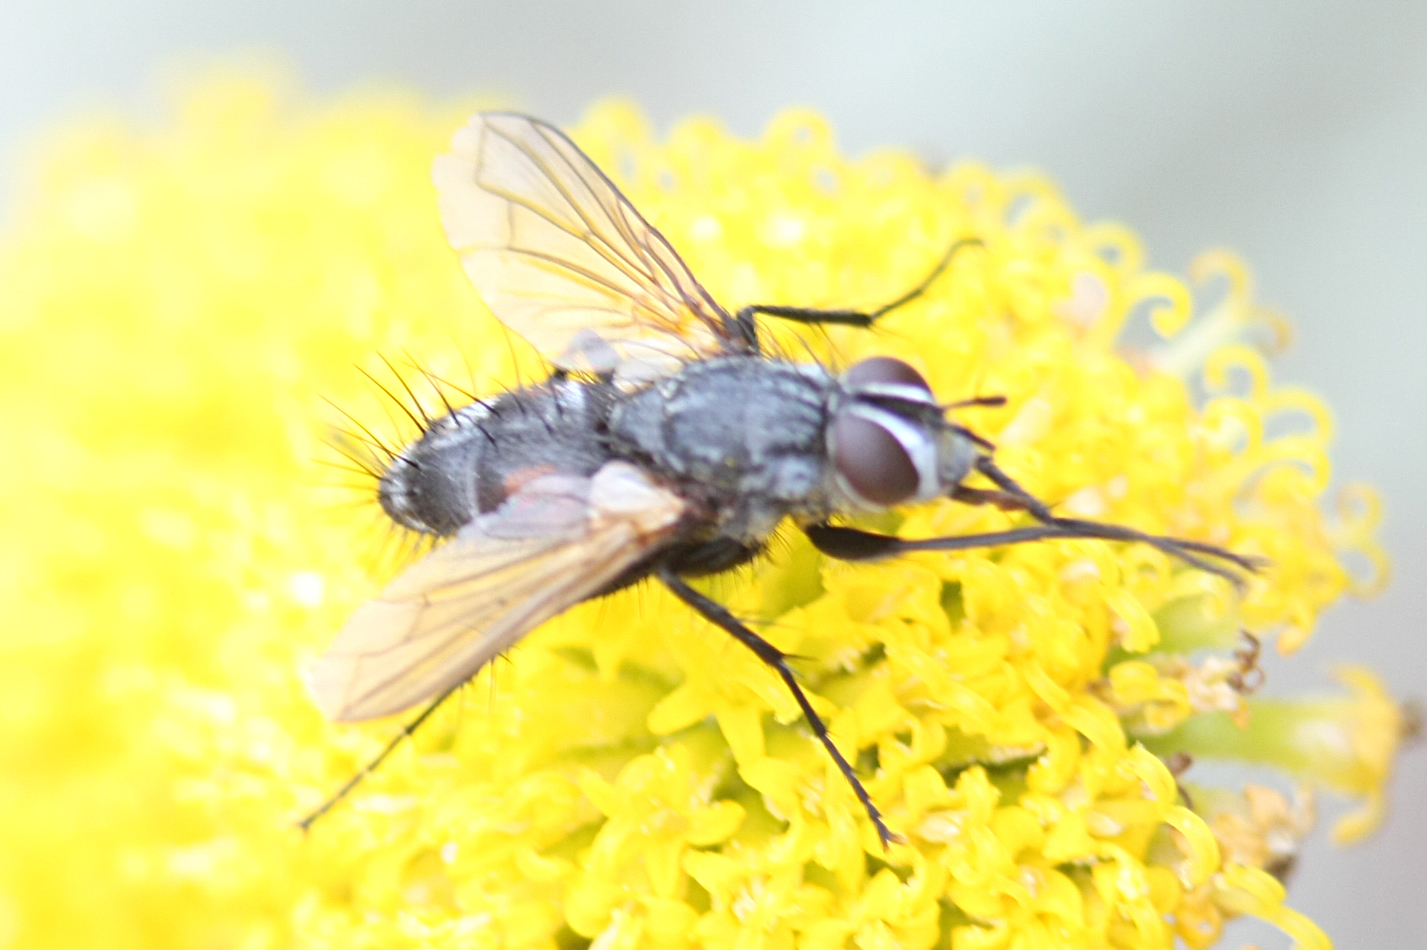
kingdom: Animalia
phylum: Arthropoda
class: Insecta
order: Diptera
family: Tachinidae
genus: Eriothrix
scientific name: Eriothrix rufomaculatus
